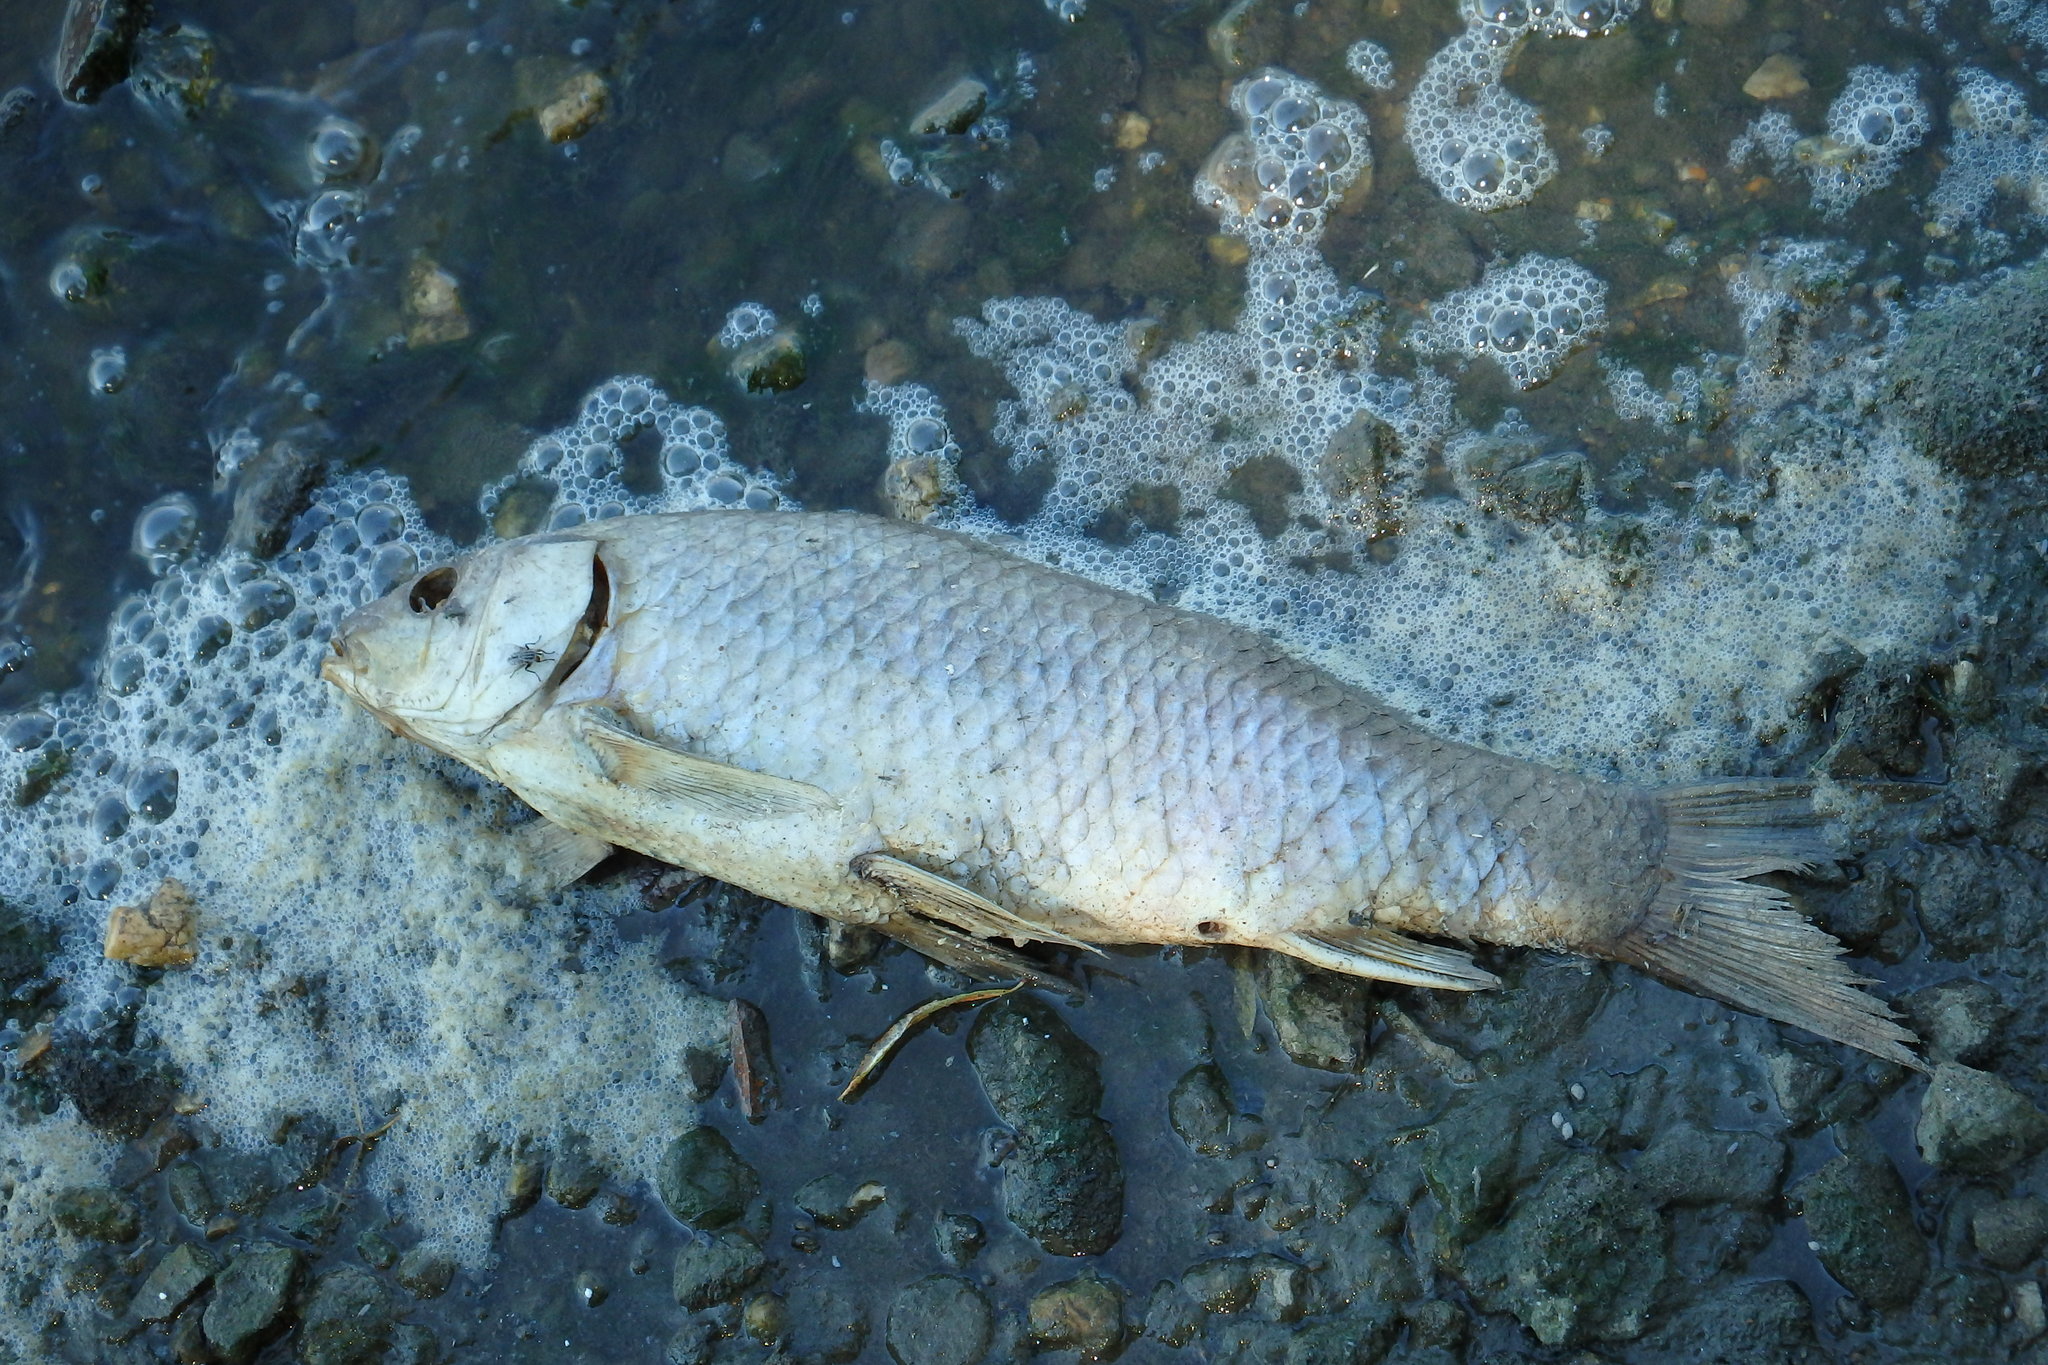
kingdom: Animalia
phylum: Chordata
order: Cypriniformes
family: Cyprinidae
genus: Cyprinus
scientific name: Cyprinus carpio
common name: Common carp
